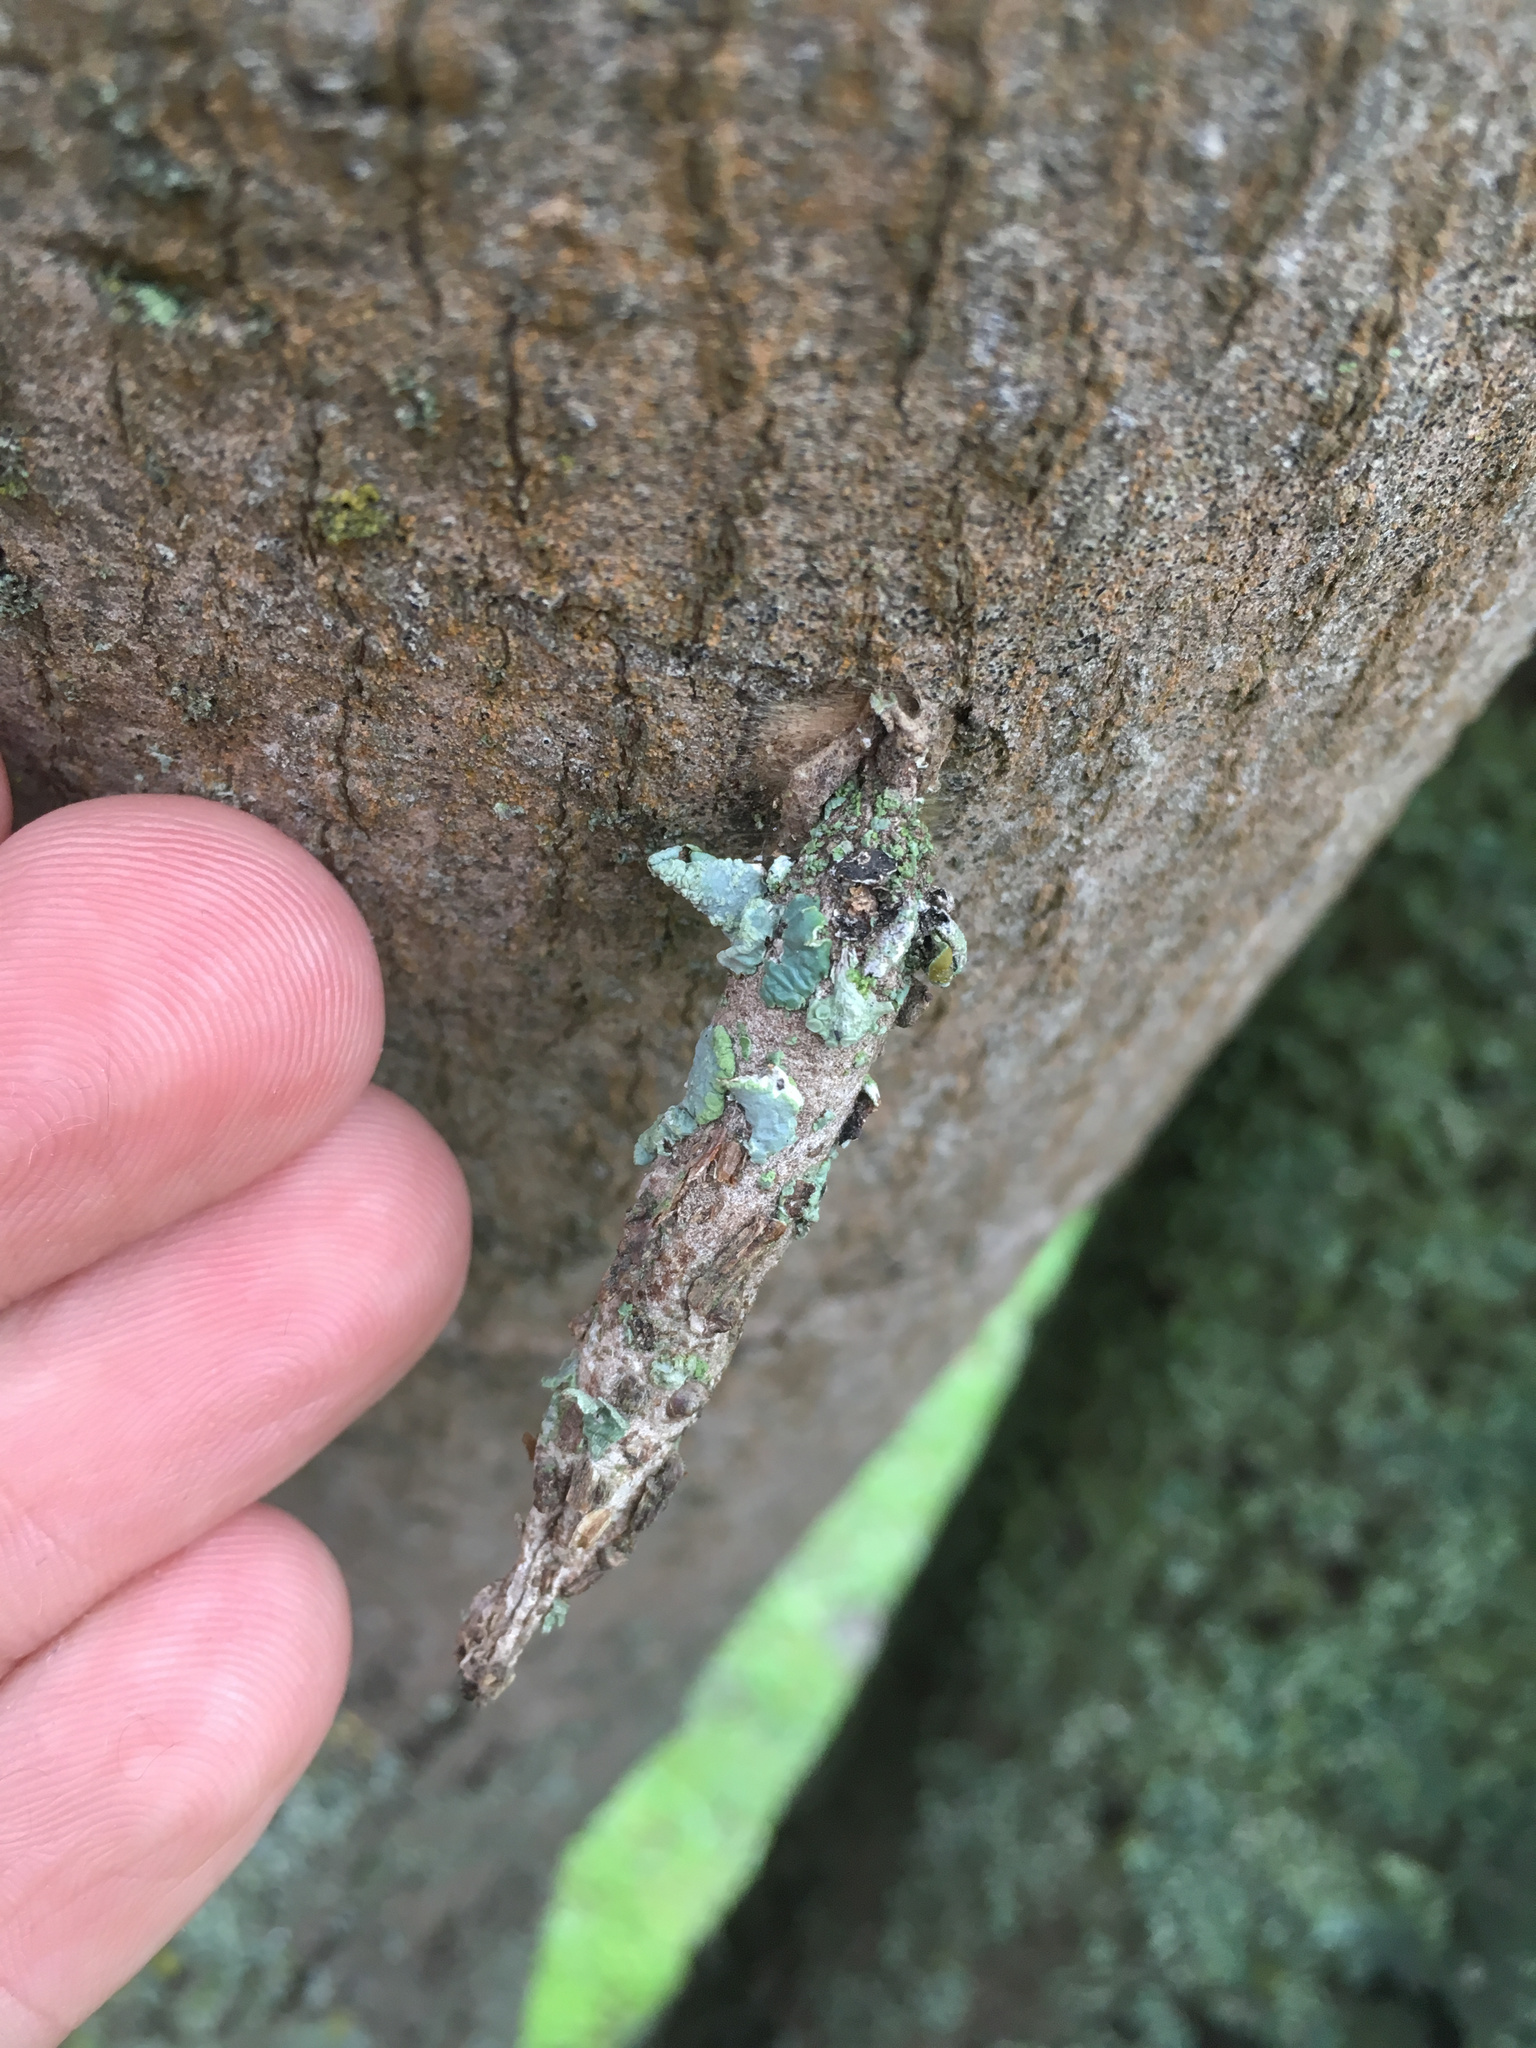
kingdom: Animalia
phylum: Arthropoda
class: Insecta
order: Lepidoptera
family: Psychidae
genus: Liothula
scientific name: Liothula omnivora
